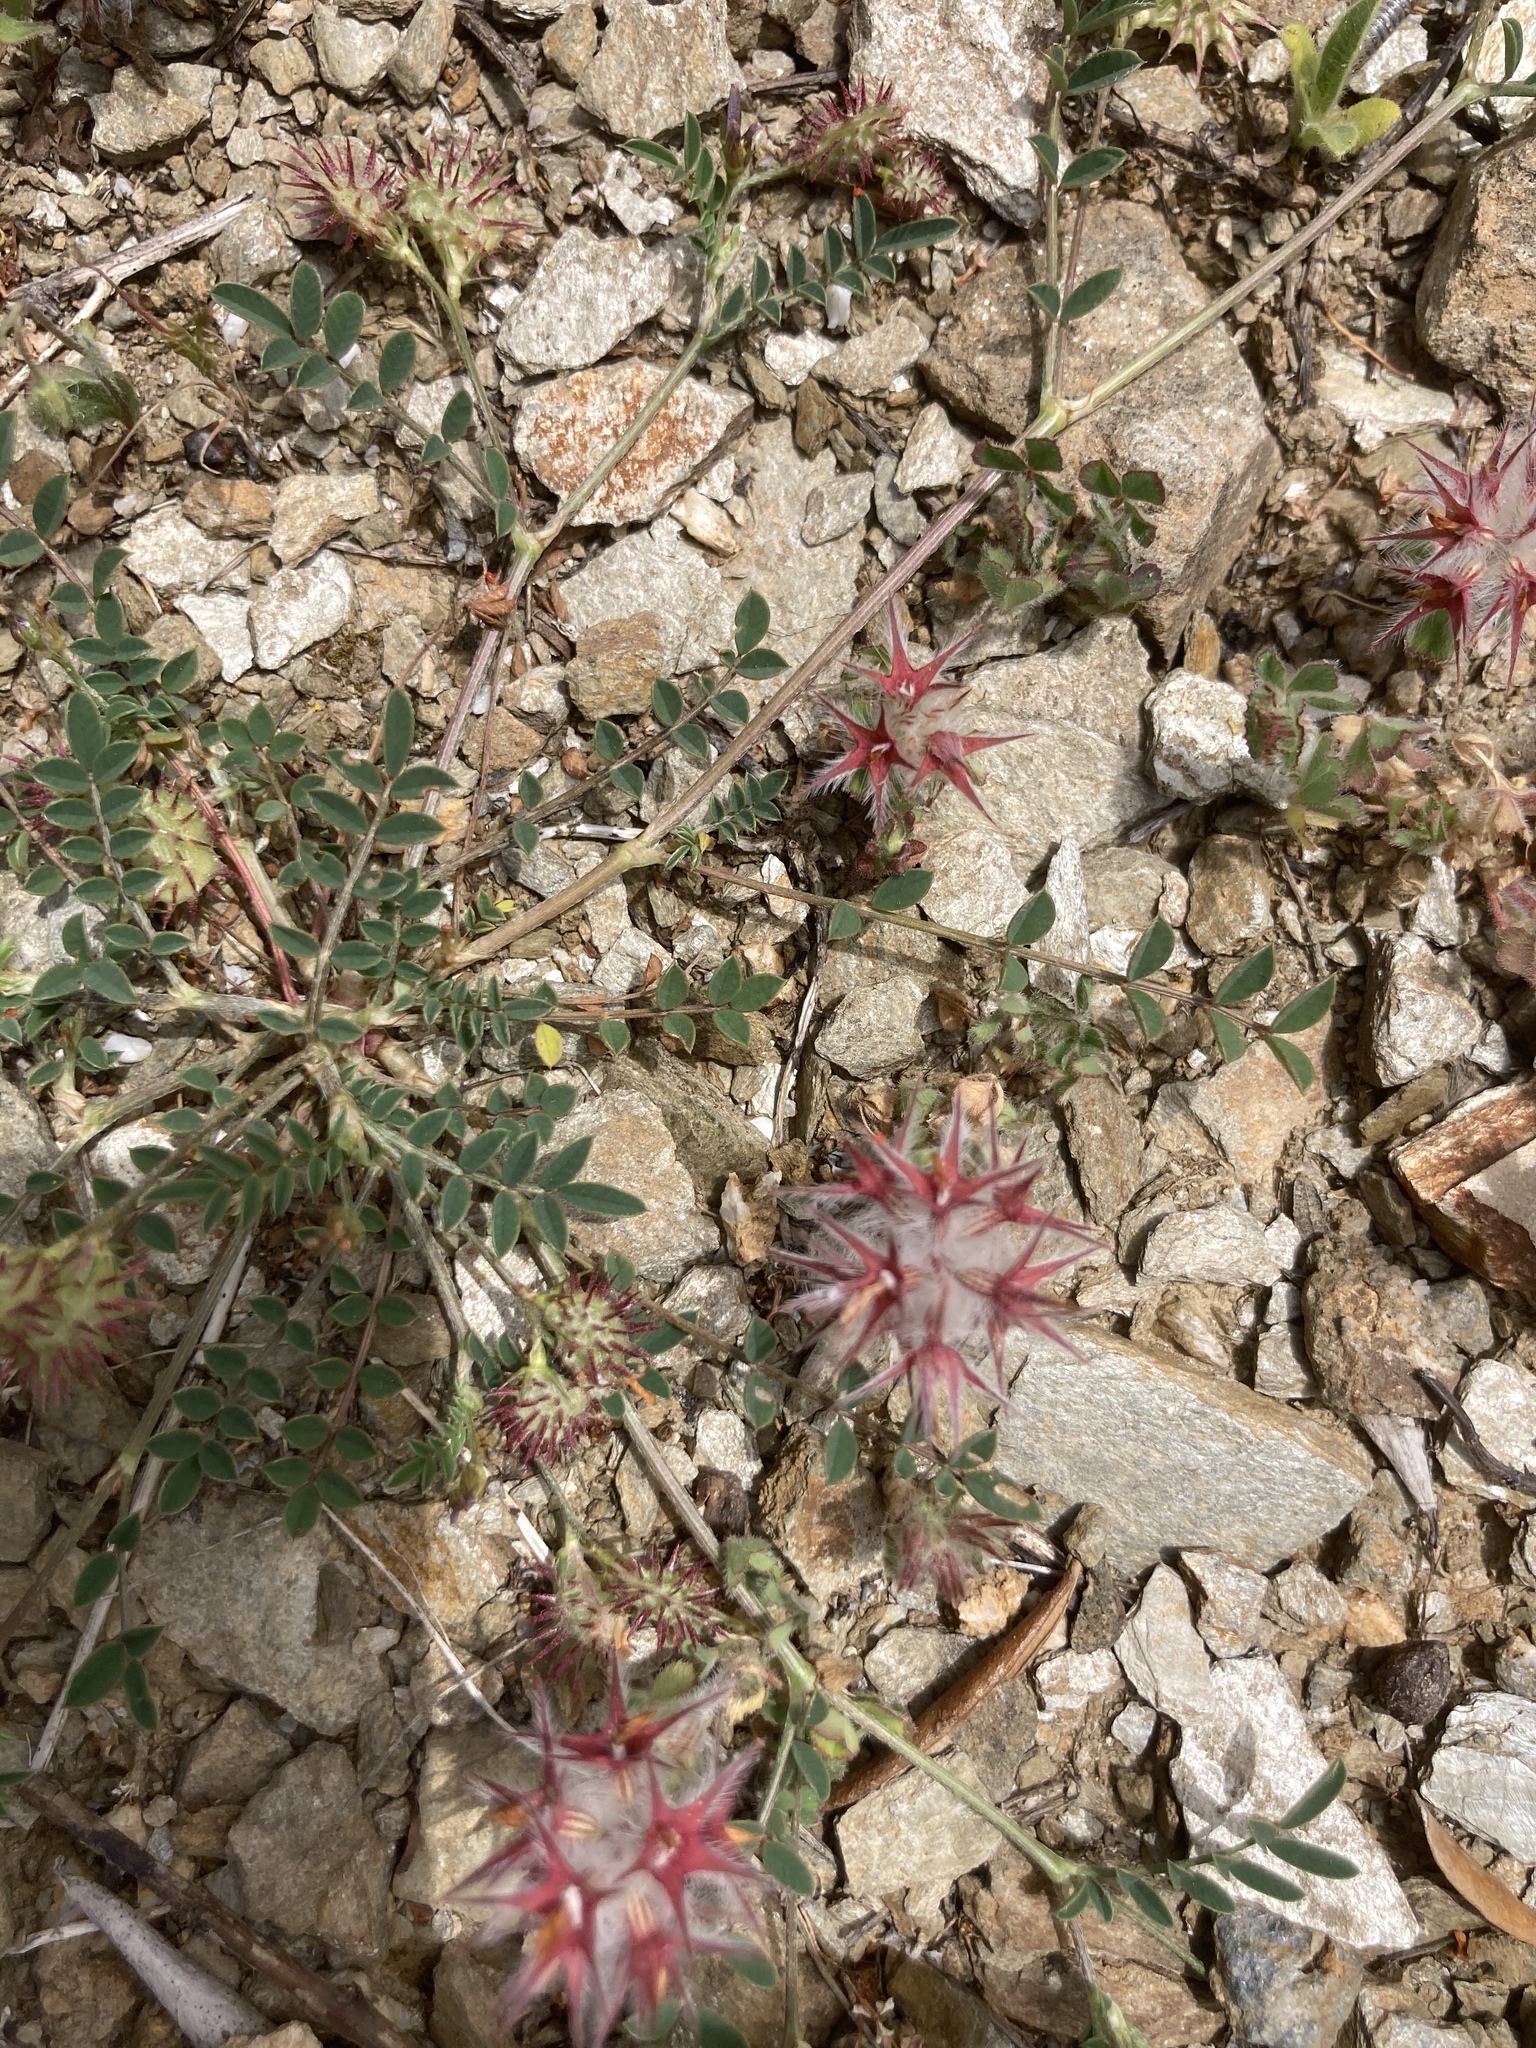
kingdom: Plantae
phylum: Tracheophyta
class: Magnoliopsida
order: Fabales
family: Fabaceae
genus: Trifolium
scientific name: Trifolium stellatum
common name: Starry clover
